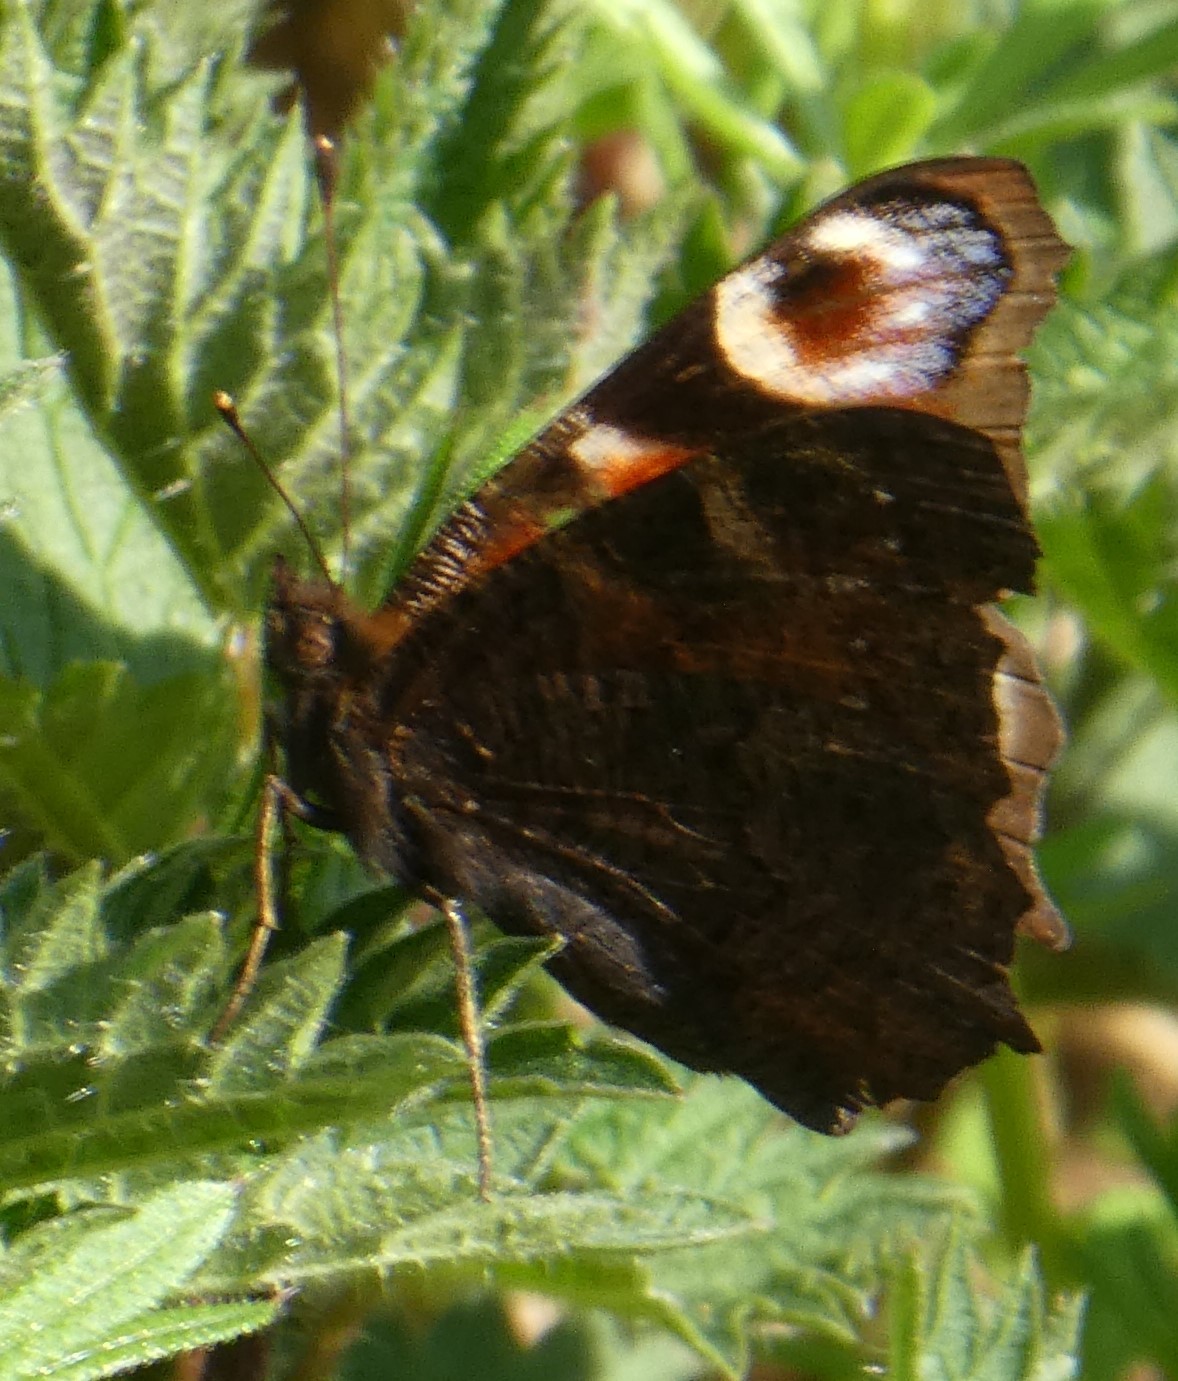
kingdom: Animalia
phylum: Arthropoda
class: Insecta
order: Lepidoptera
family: Nymphalidae
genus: Aglais
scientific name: Aglais io
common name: Peacock
